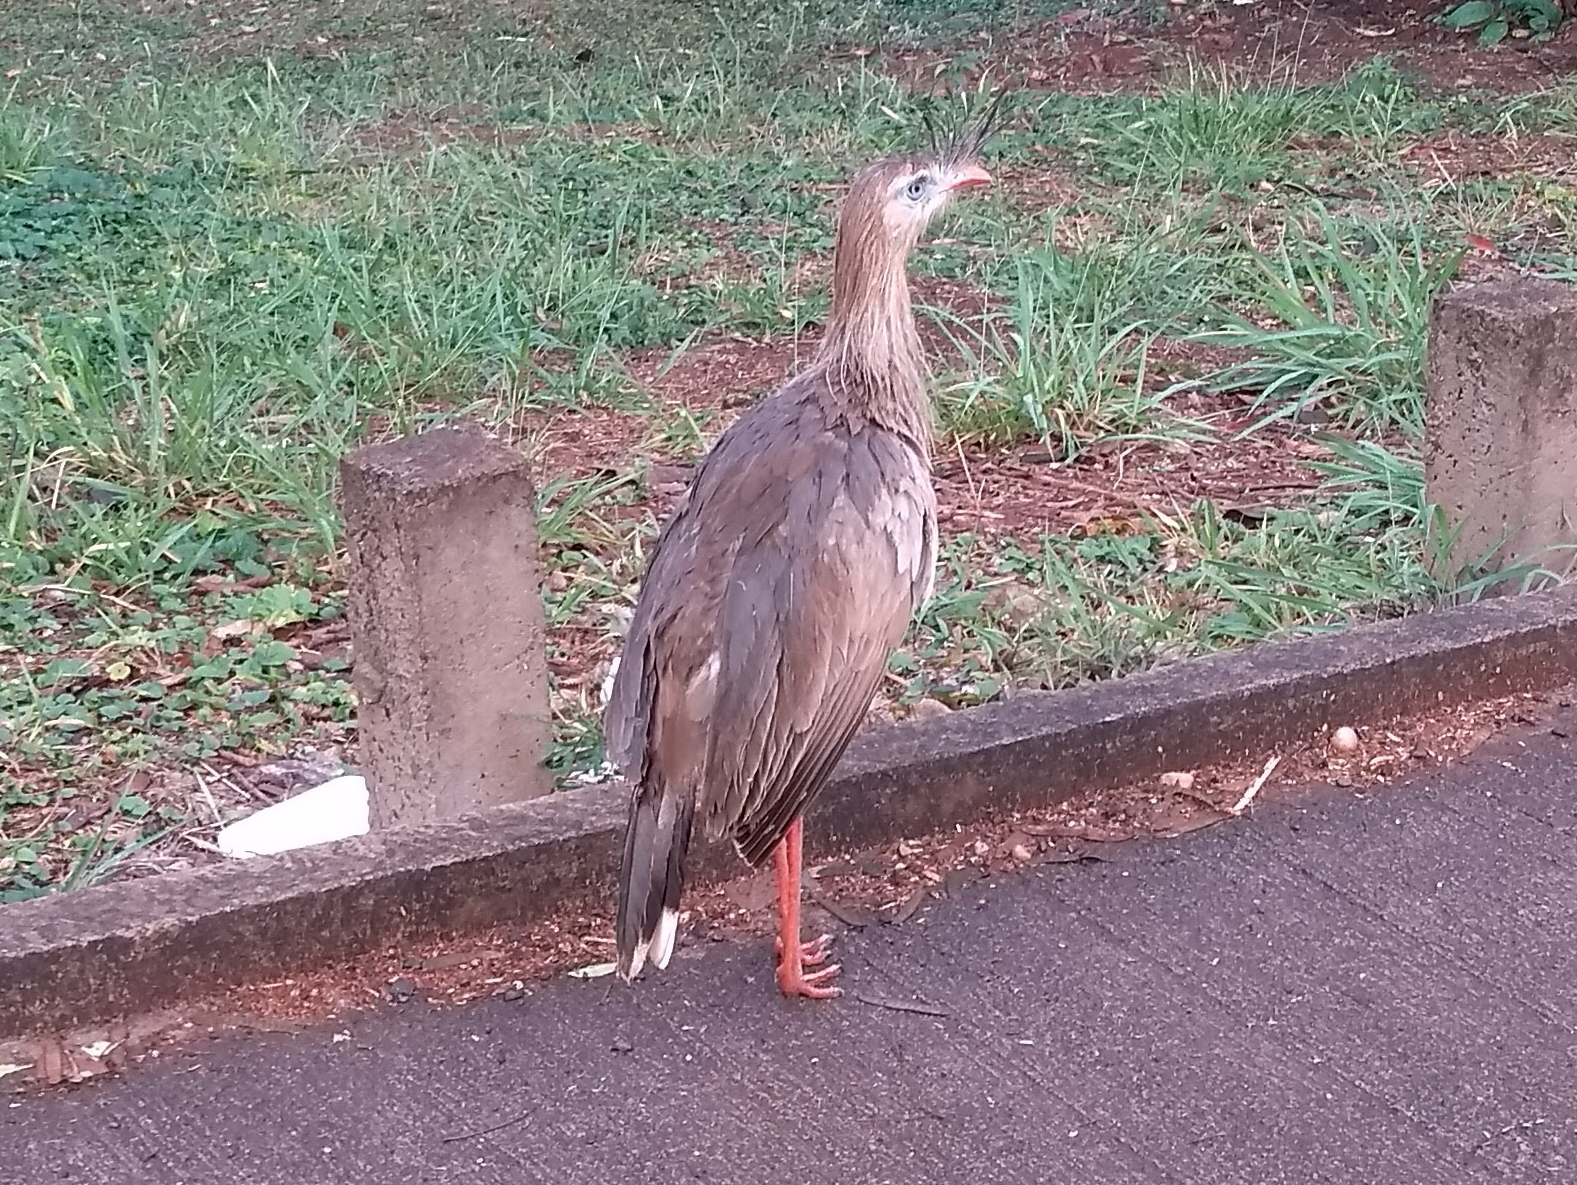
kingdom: Animalia
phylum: Chordata
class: Aves
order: Cariamiformes
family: Cariamidae
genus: Cariama
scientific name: Cariama cristata
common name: Red-legged seriema
